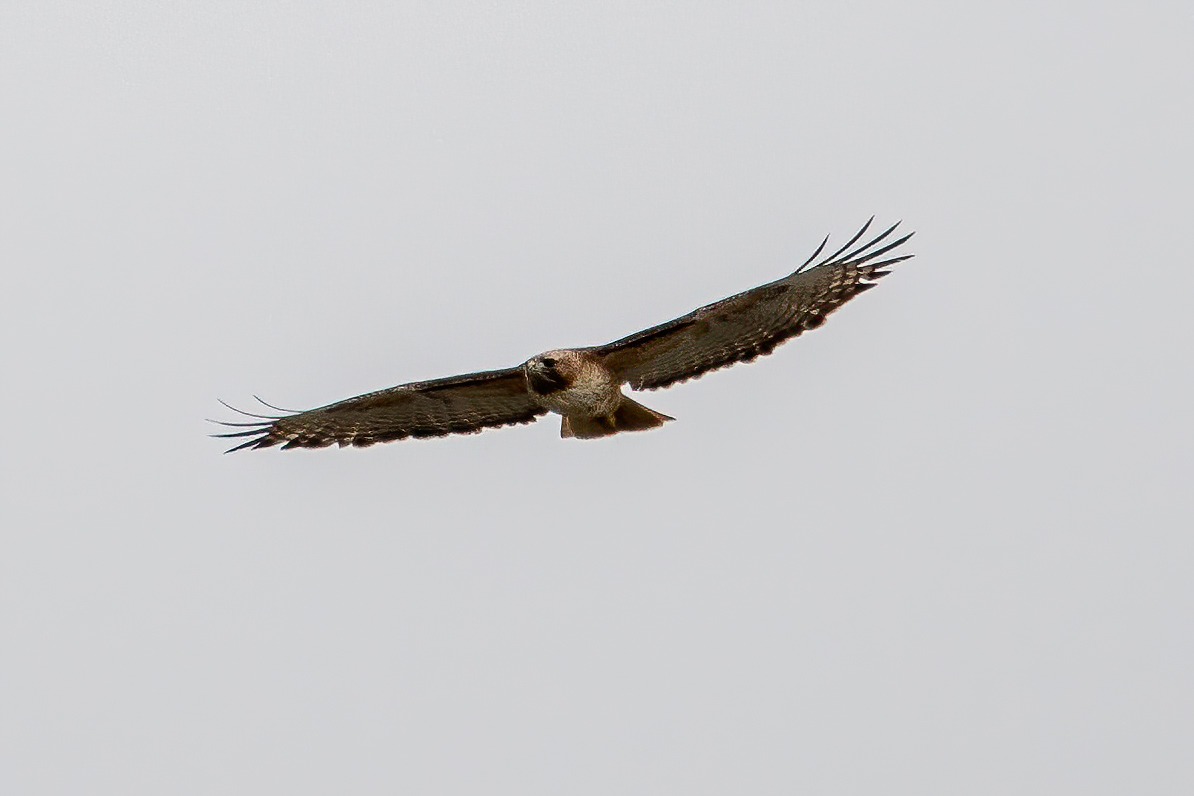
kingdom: Animalia
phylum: Chordata
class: Aves
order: Accipitriformes
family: Accipitridae
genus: Buteo
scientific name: Buteo jamaicensis
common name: Red-tailed hawk
